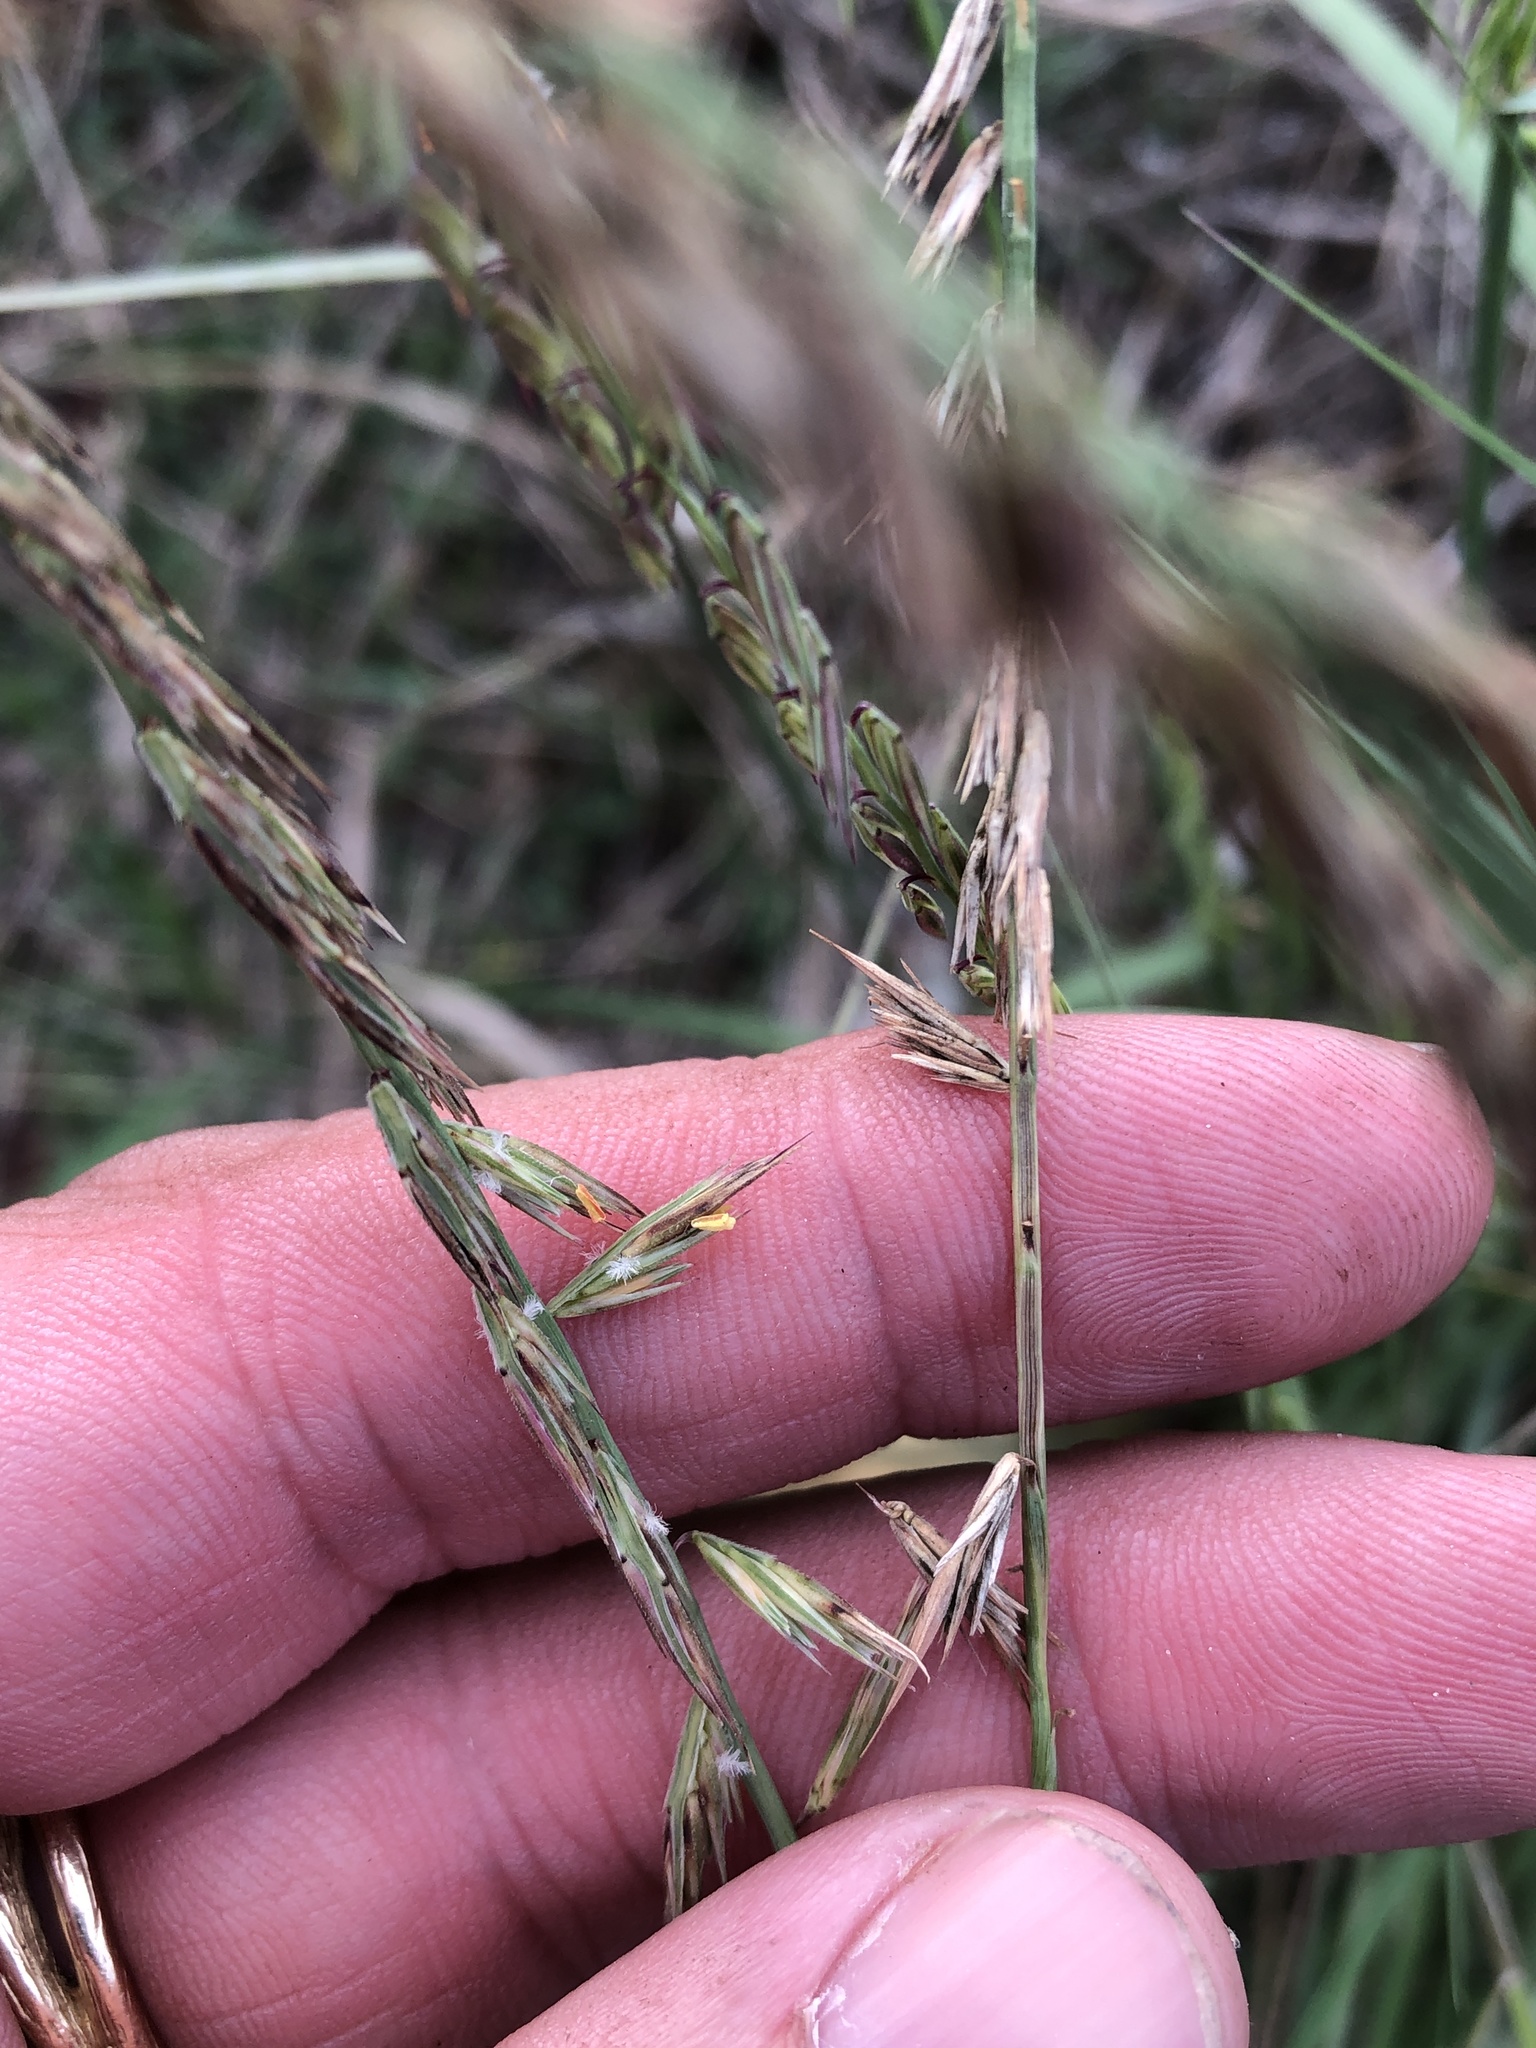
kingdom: Plantae
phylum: Tracheophyta
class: Liliopsida
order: Poales
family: Poaceae
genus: Bouteloua
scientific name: Bouteloua curtipendula
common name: Side-oats grama
